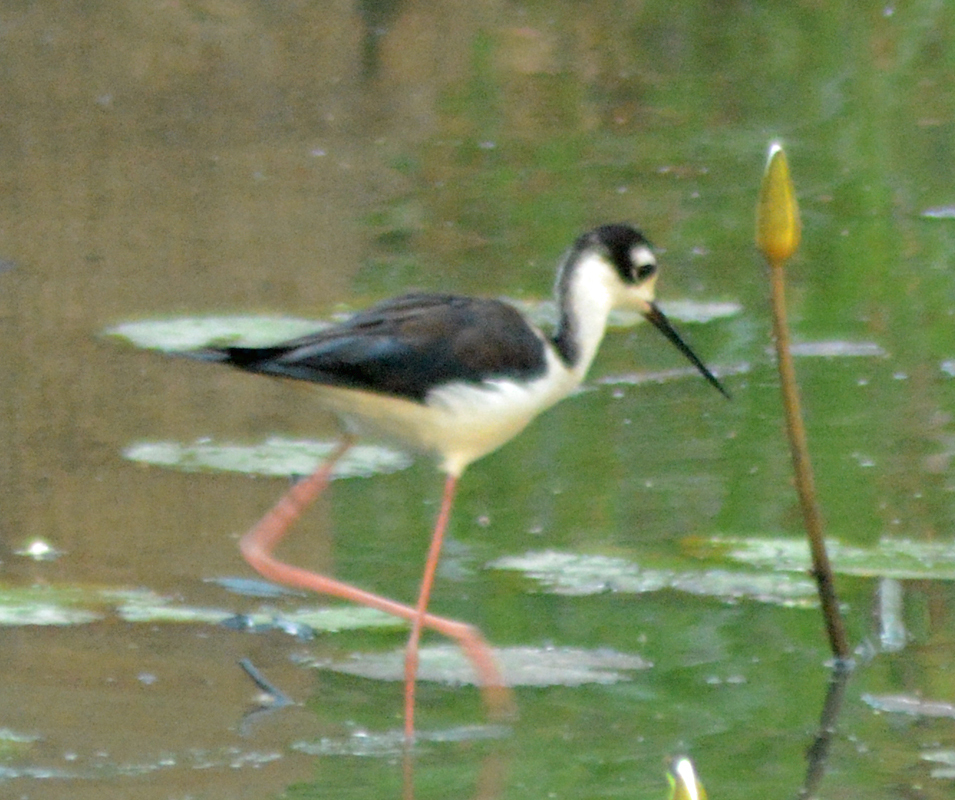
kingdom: Animalia
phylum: Chordata
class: Aves
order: Charadriiformes
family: Recurvirostridae
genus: Himantopus
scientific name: Himantopus mexicanus
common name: Black-necked stilt
